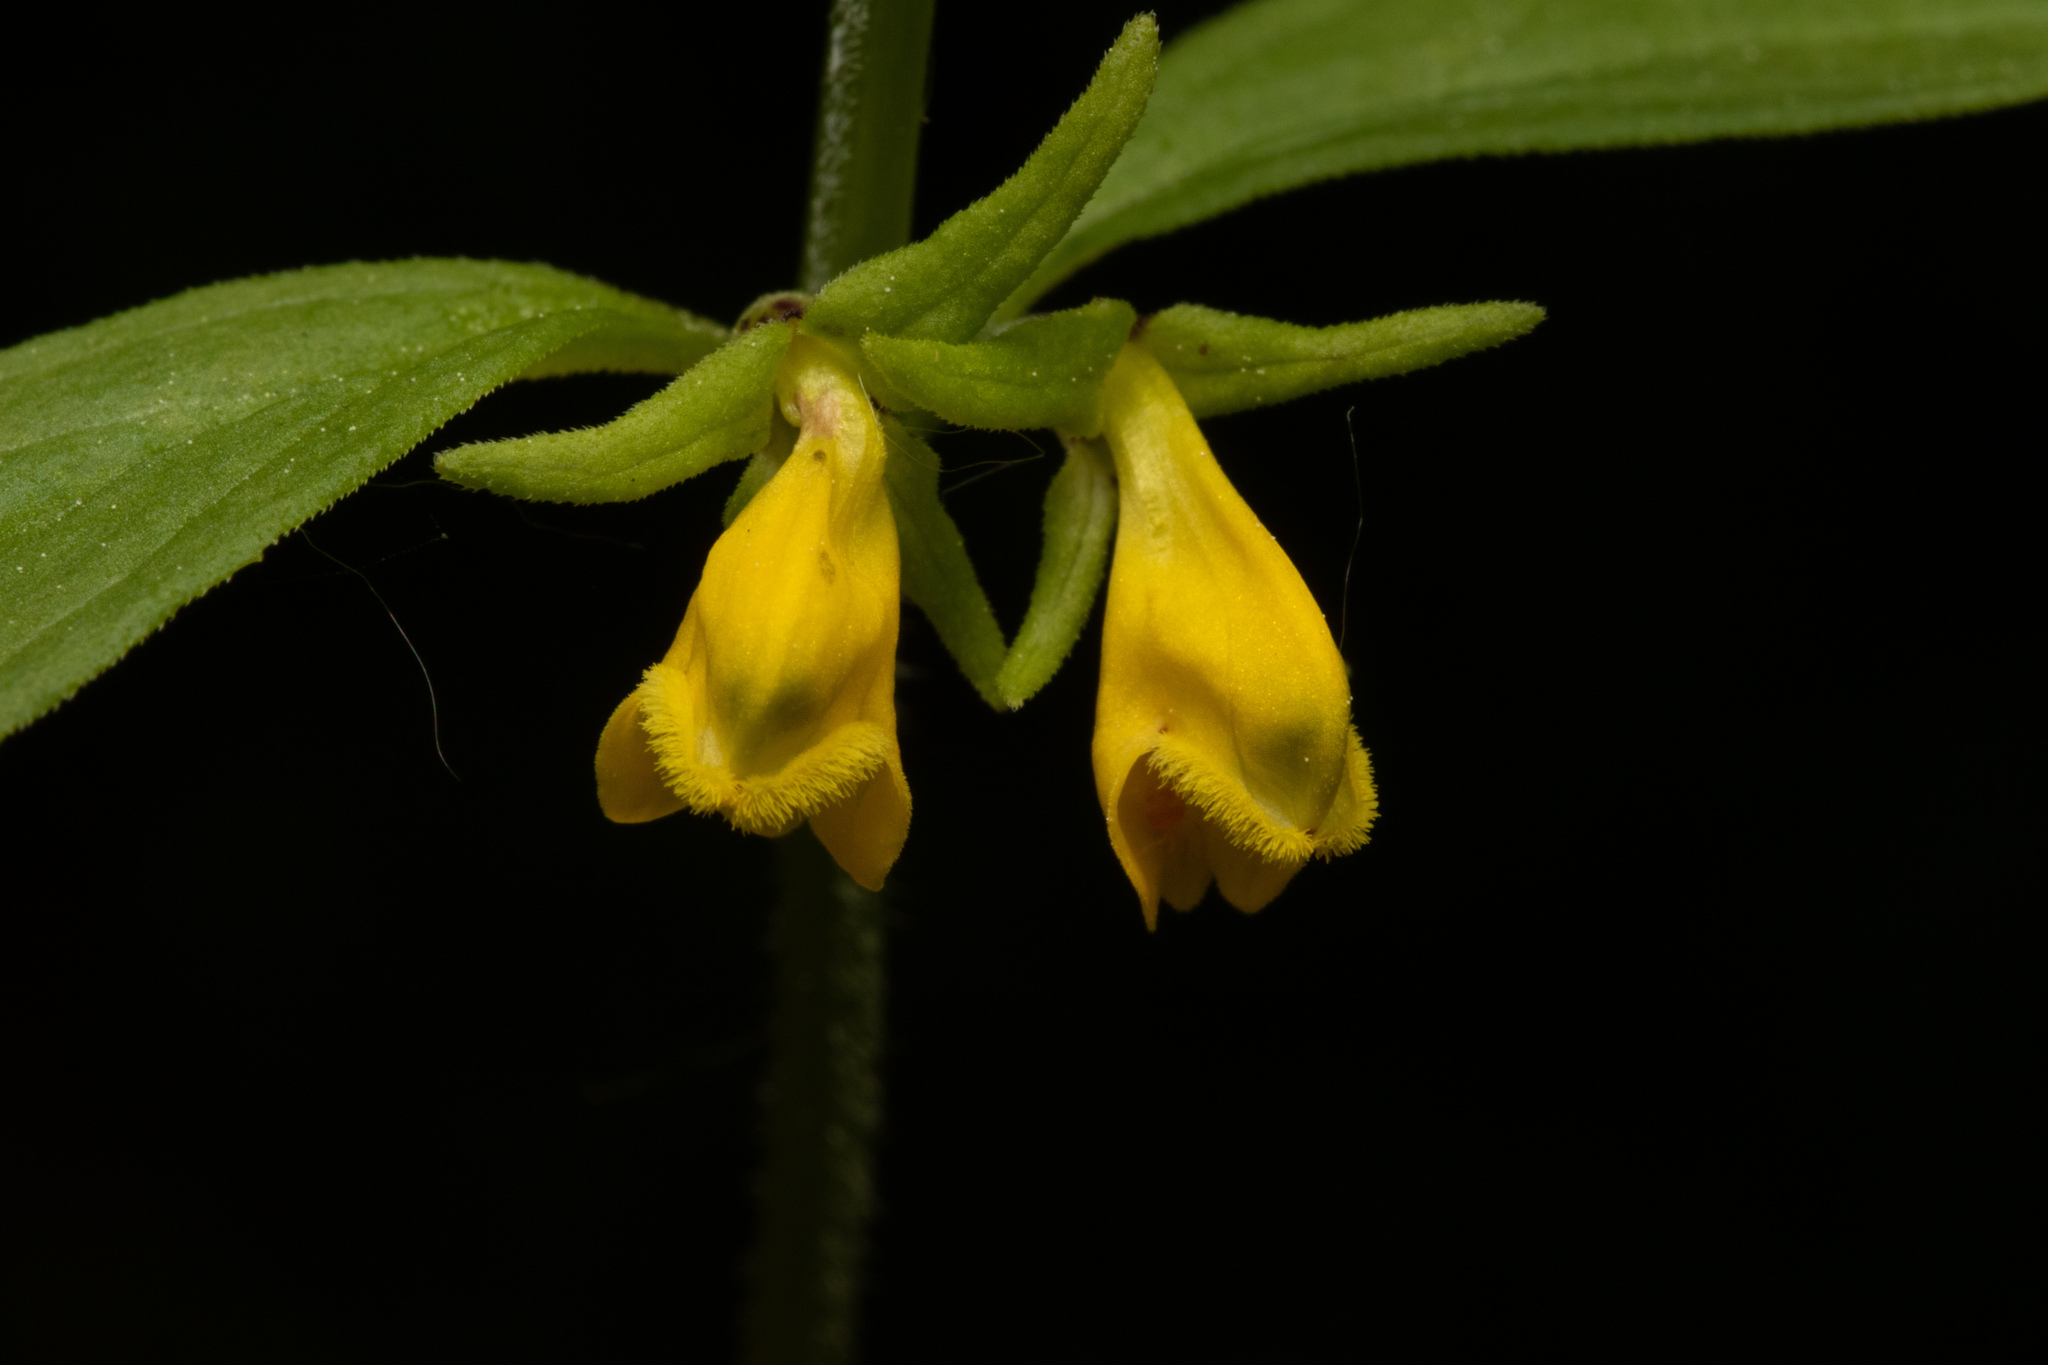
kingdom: Plantae
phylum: Tracheophyta
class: Magnoliopsida
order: Lamiales
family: Orobanchaceae
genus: Melampyrum
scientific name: Melampyrum sylvaticum
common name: Small cow-wheat
